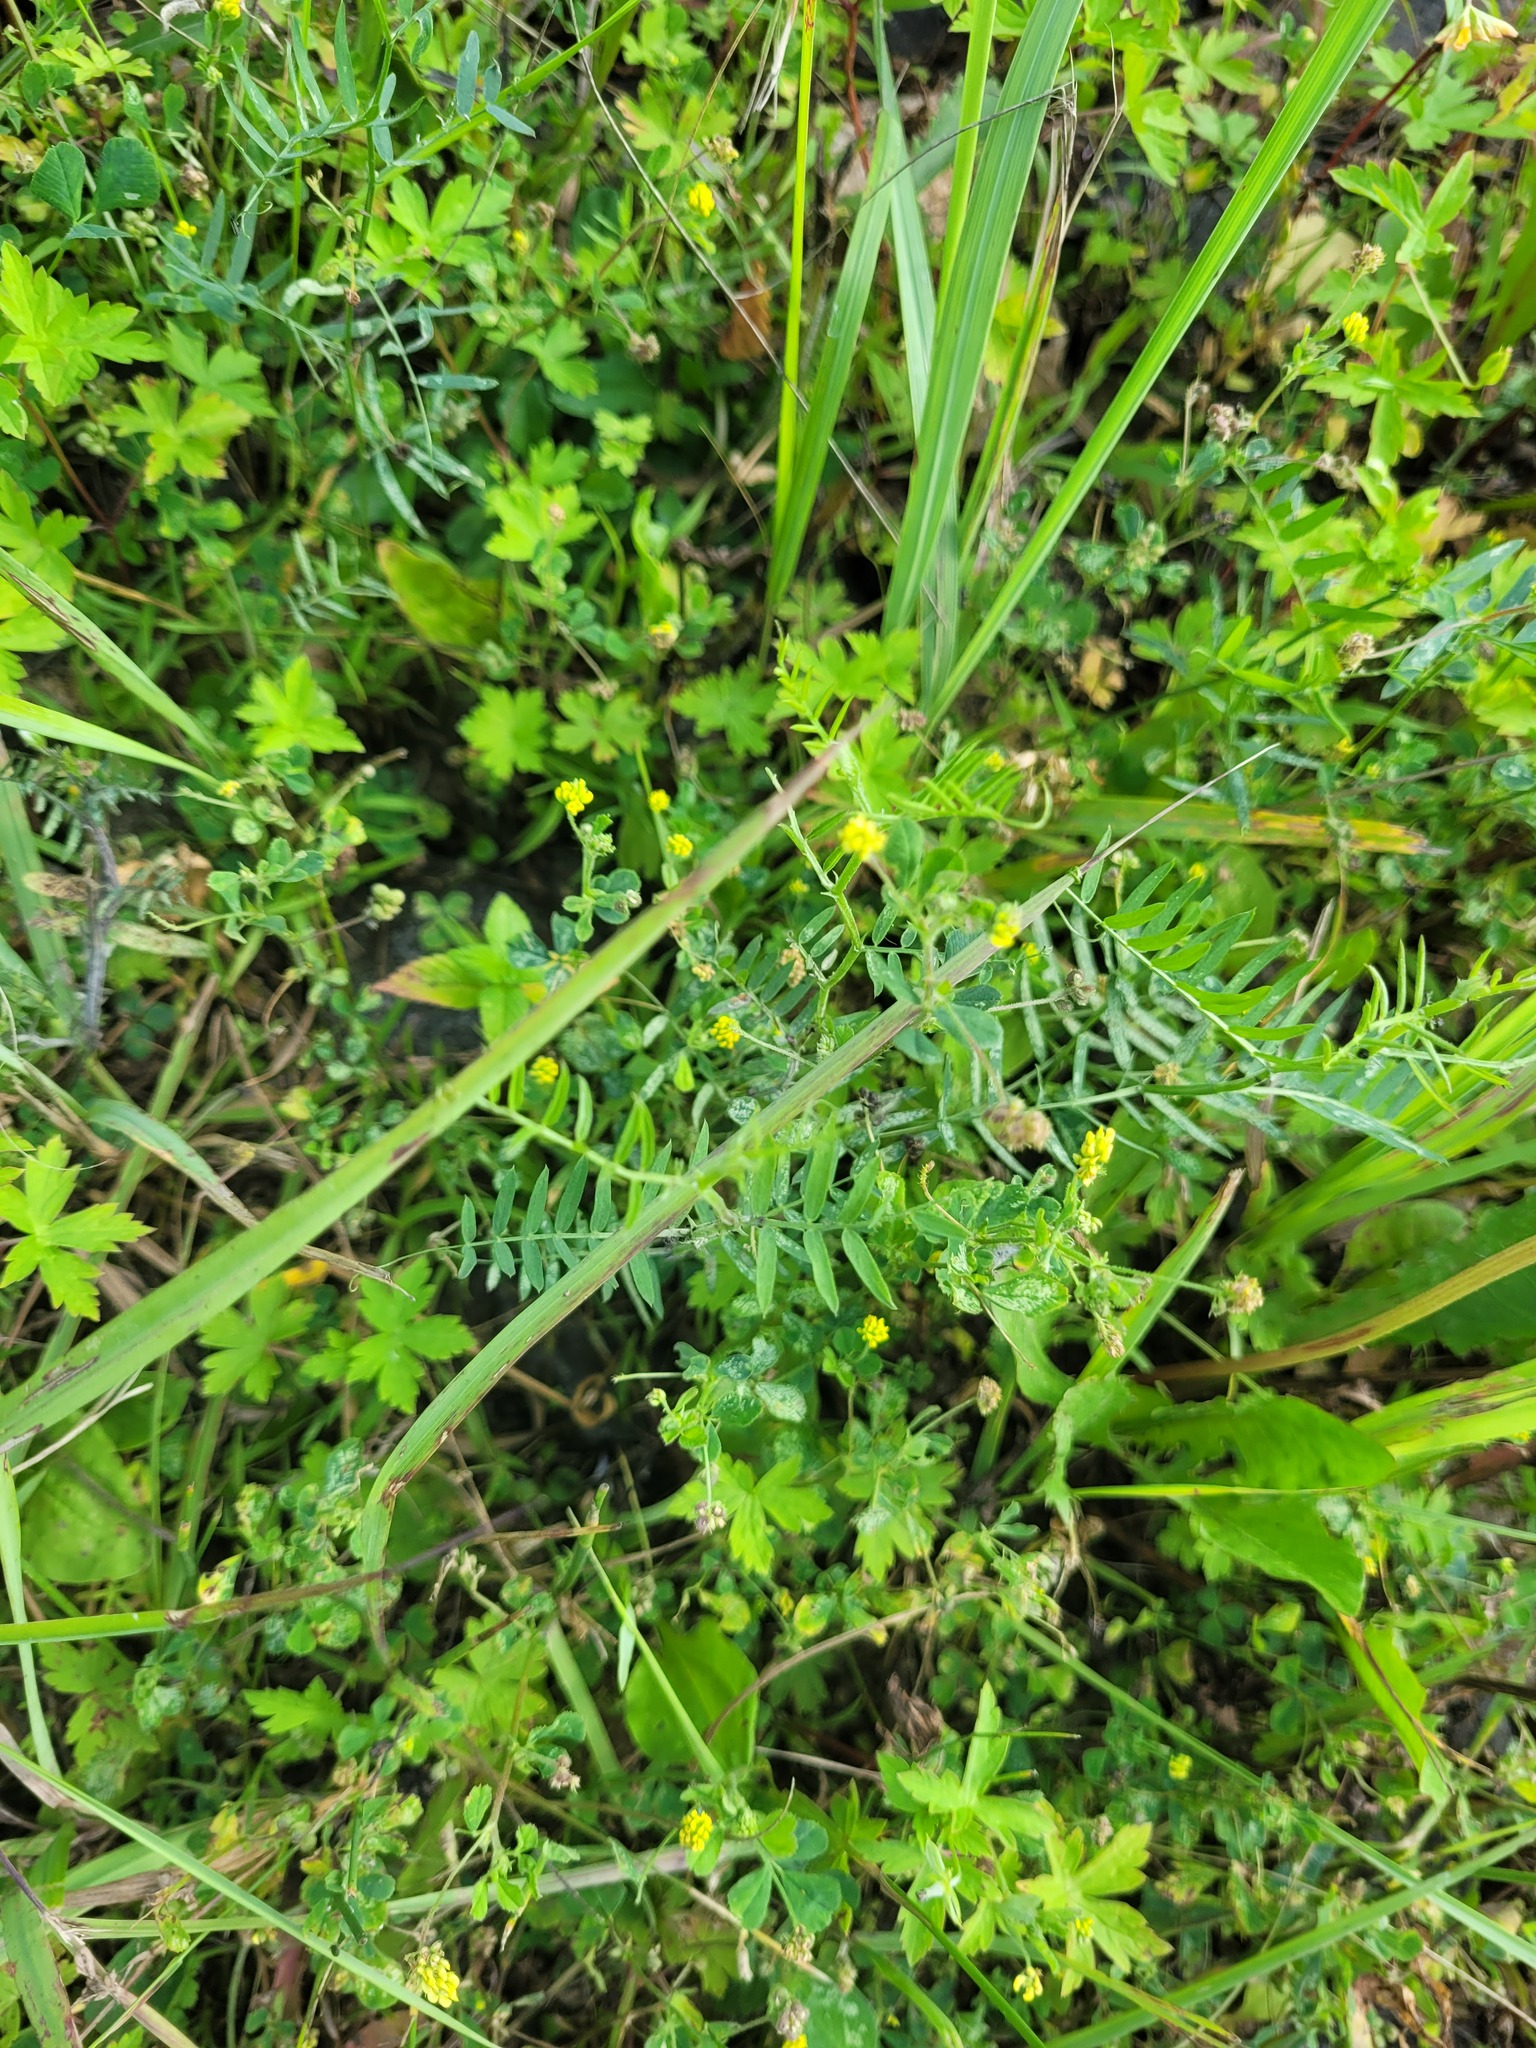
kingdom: Plantae
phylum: Tracheophyta
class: Magnoliopsida
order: Fabales
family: Fabaceae
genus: Vicia
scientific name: Vicia cracca
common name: Bird vetch
